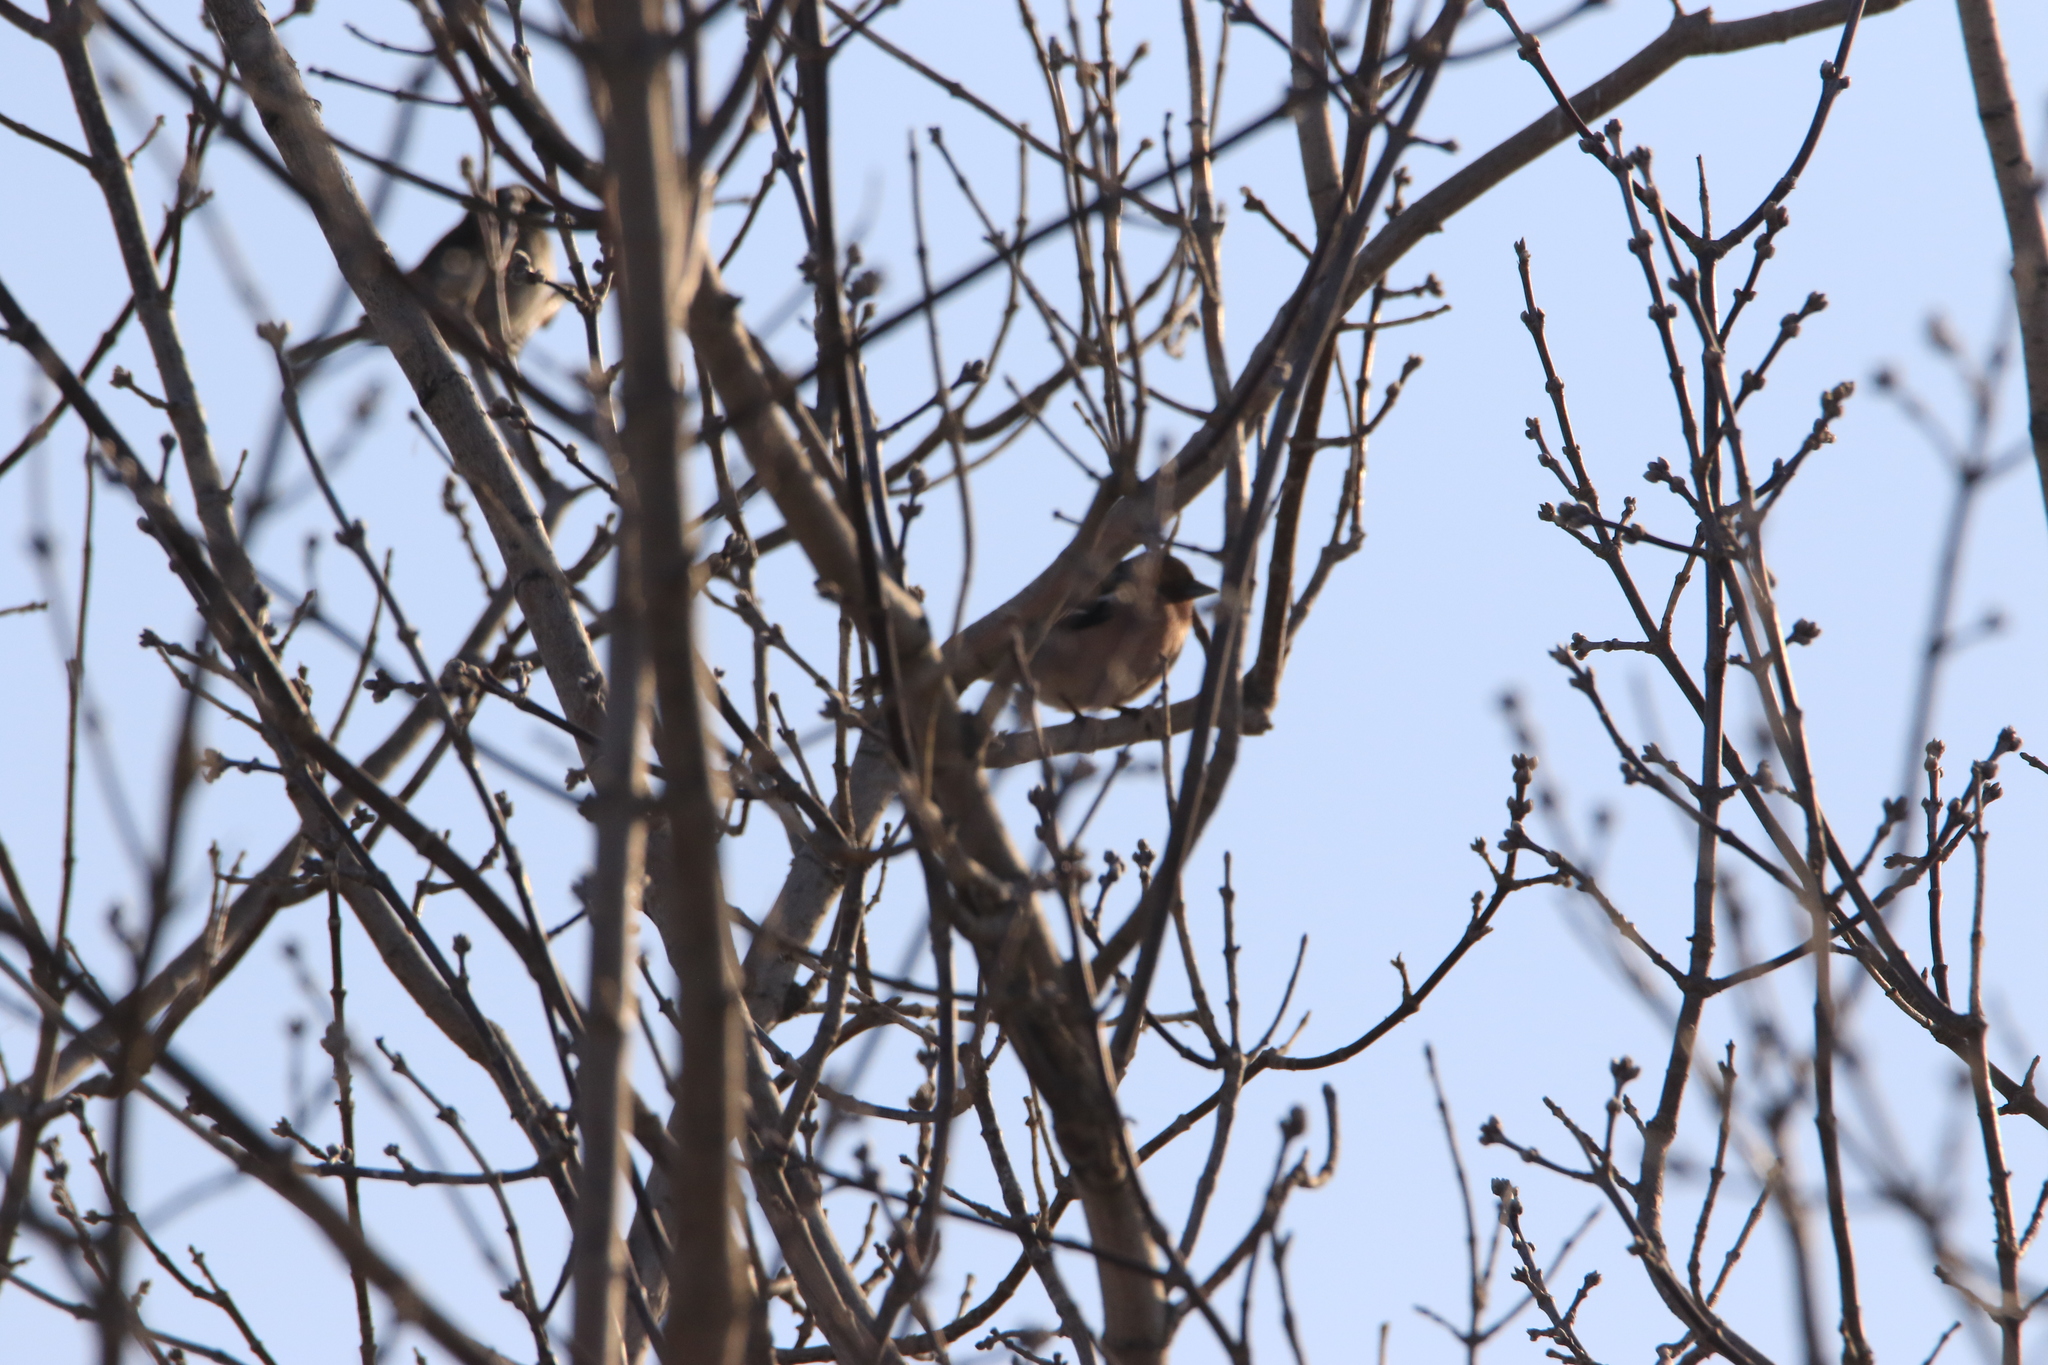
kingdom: Animalia
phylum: Chordata
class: Aves
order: Passeriformes
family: Fringillidae
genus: Fringilla
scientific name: Fringilla coelebs
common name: Common chaffinch
